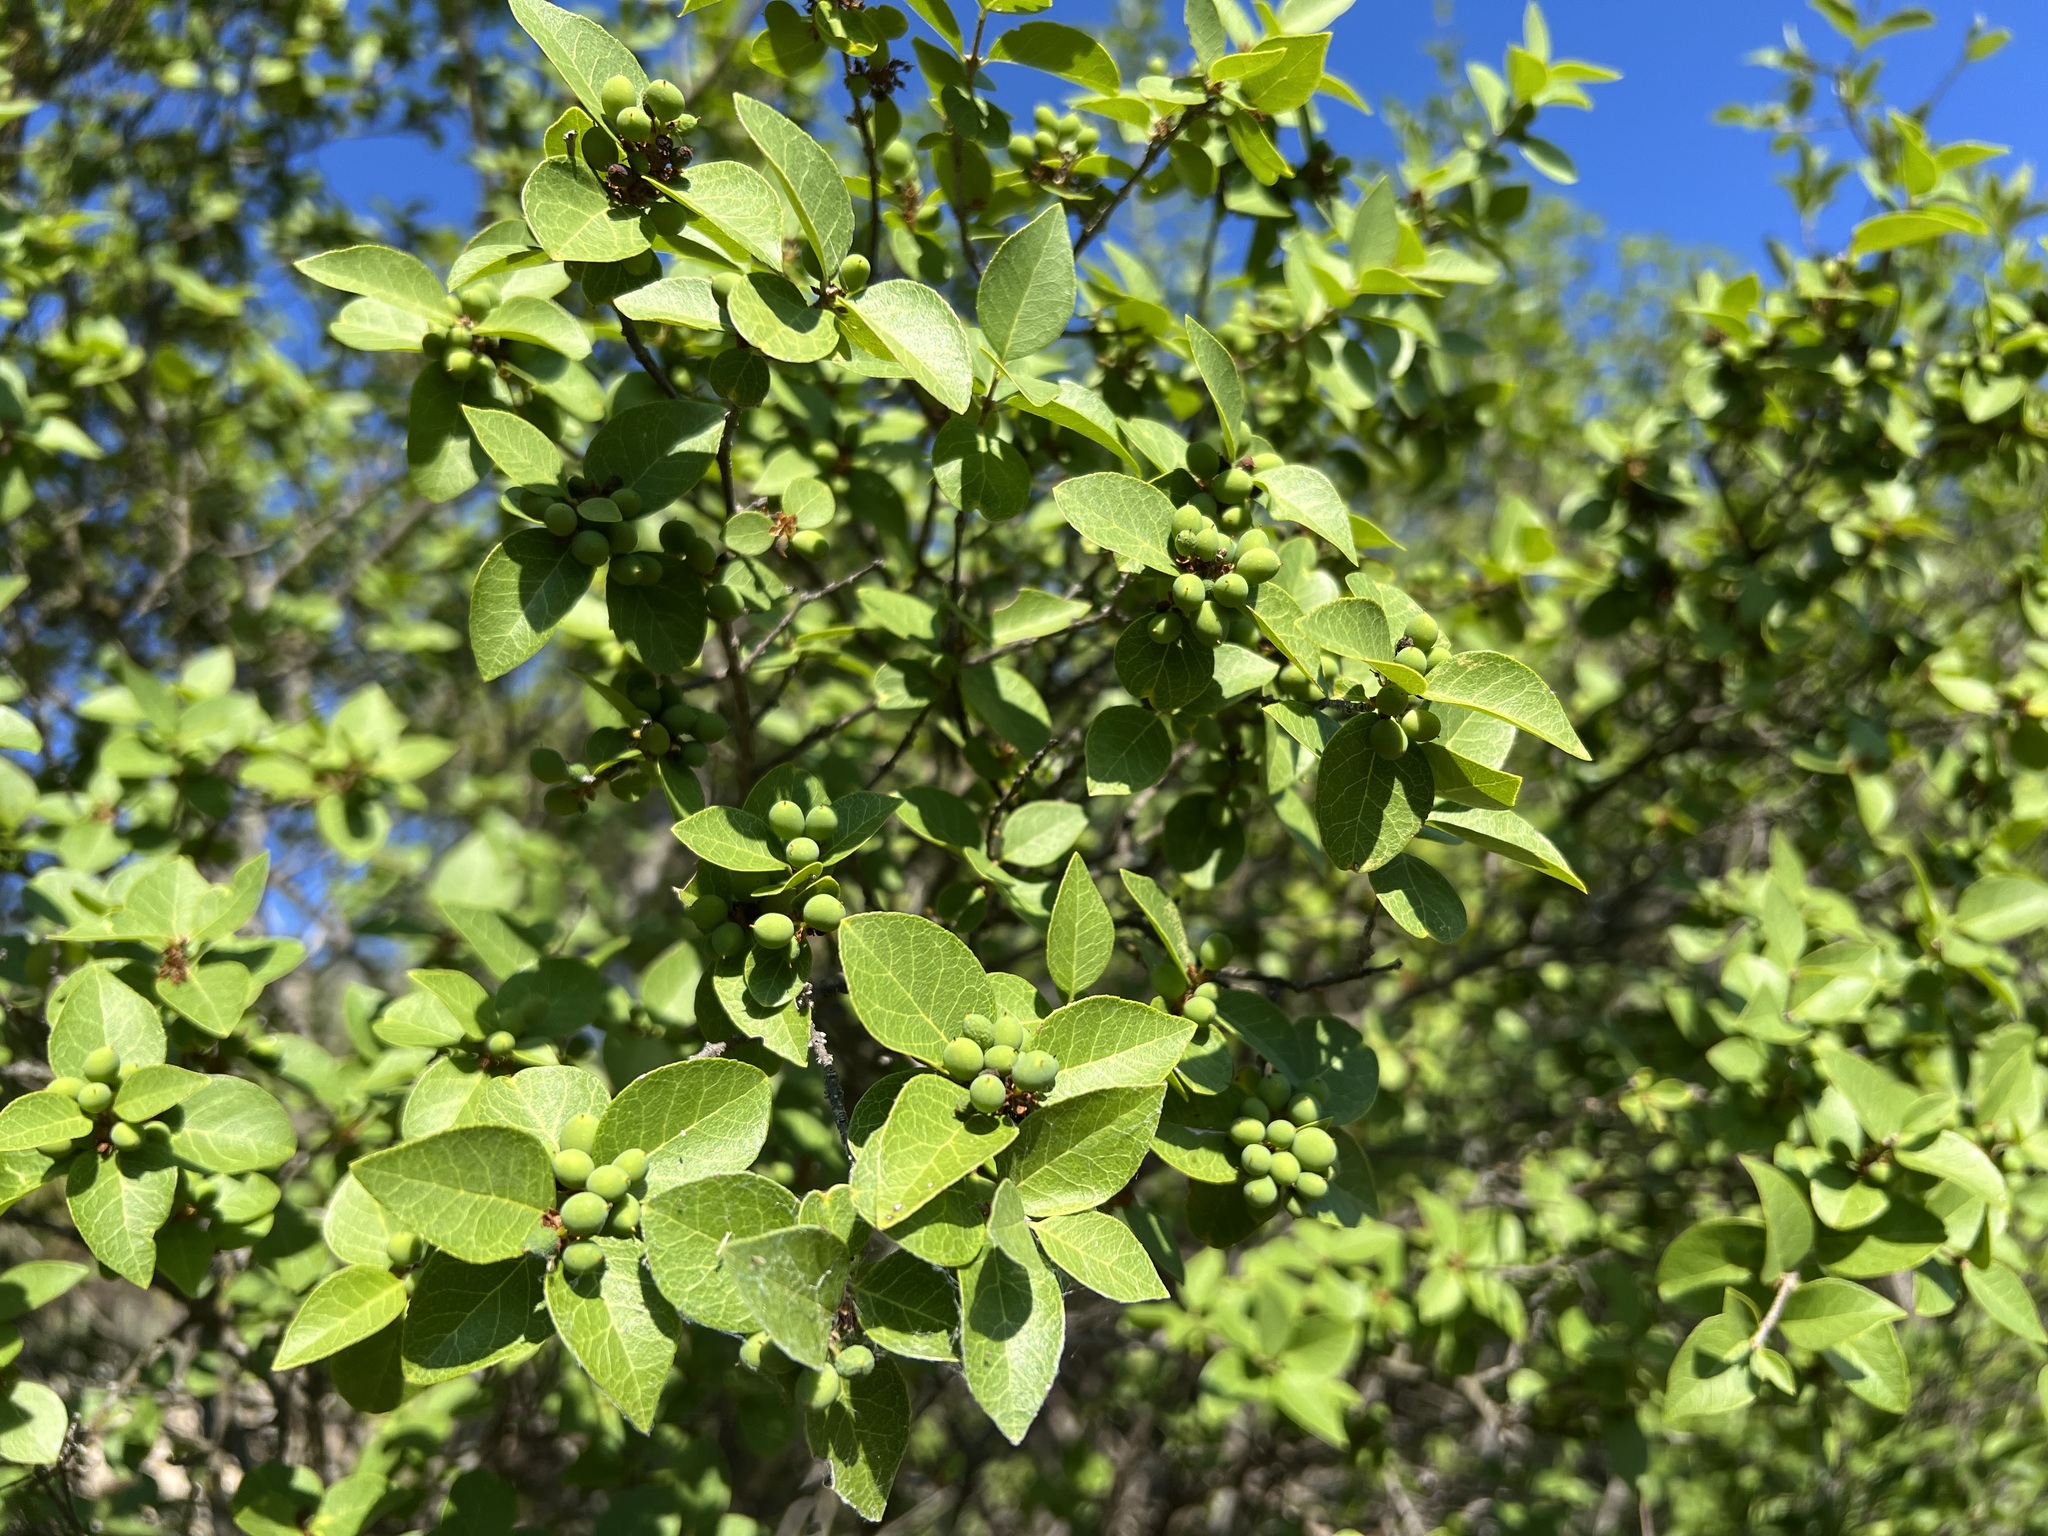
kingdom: Plantae
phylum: Tracheophyta
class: Magnoliopsida
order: Lamiales
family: Oleaceae
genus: Forestiera
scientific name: Forestiera reticulata
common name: Netleaf swamp-privet
